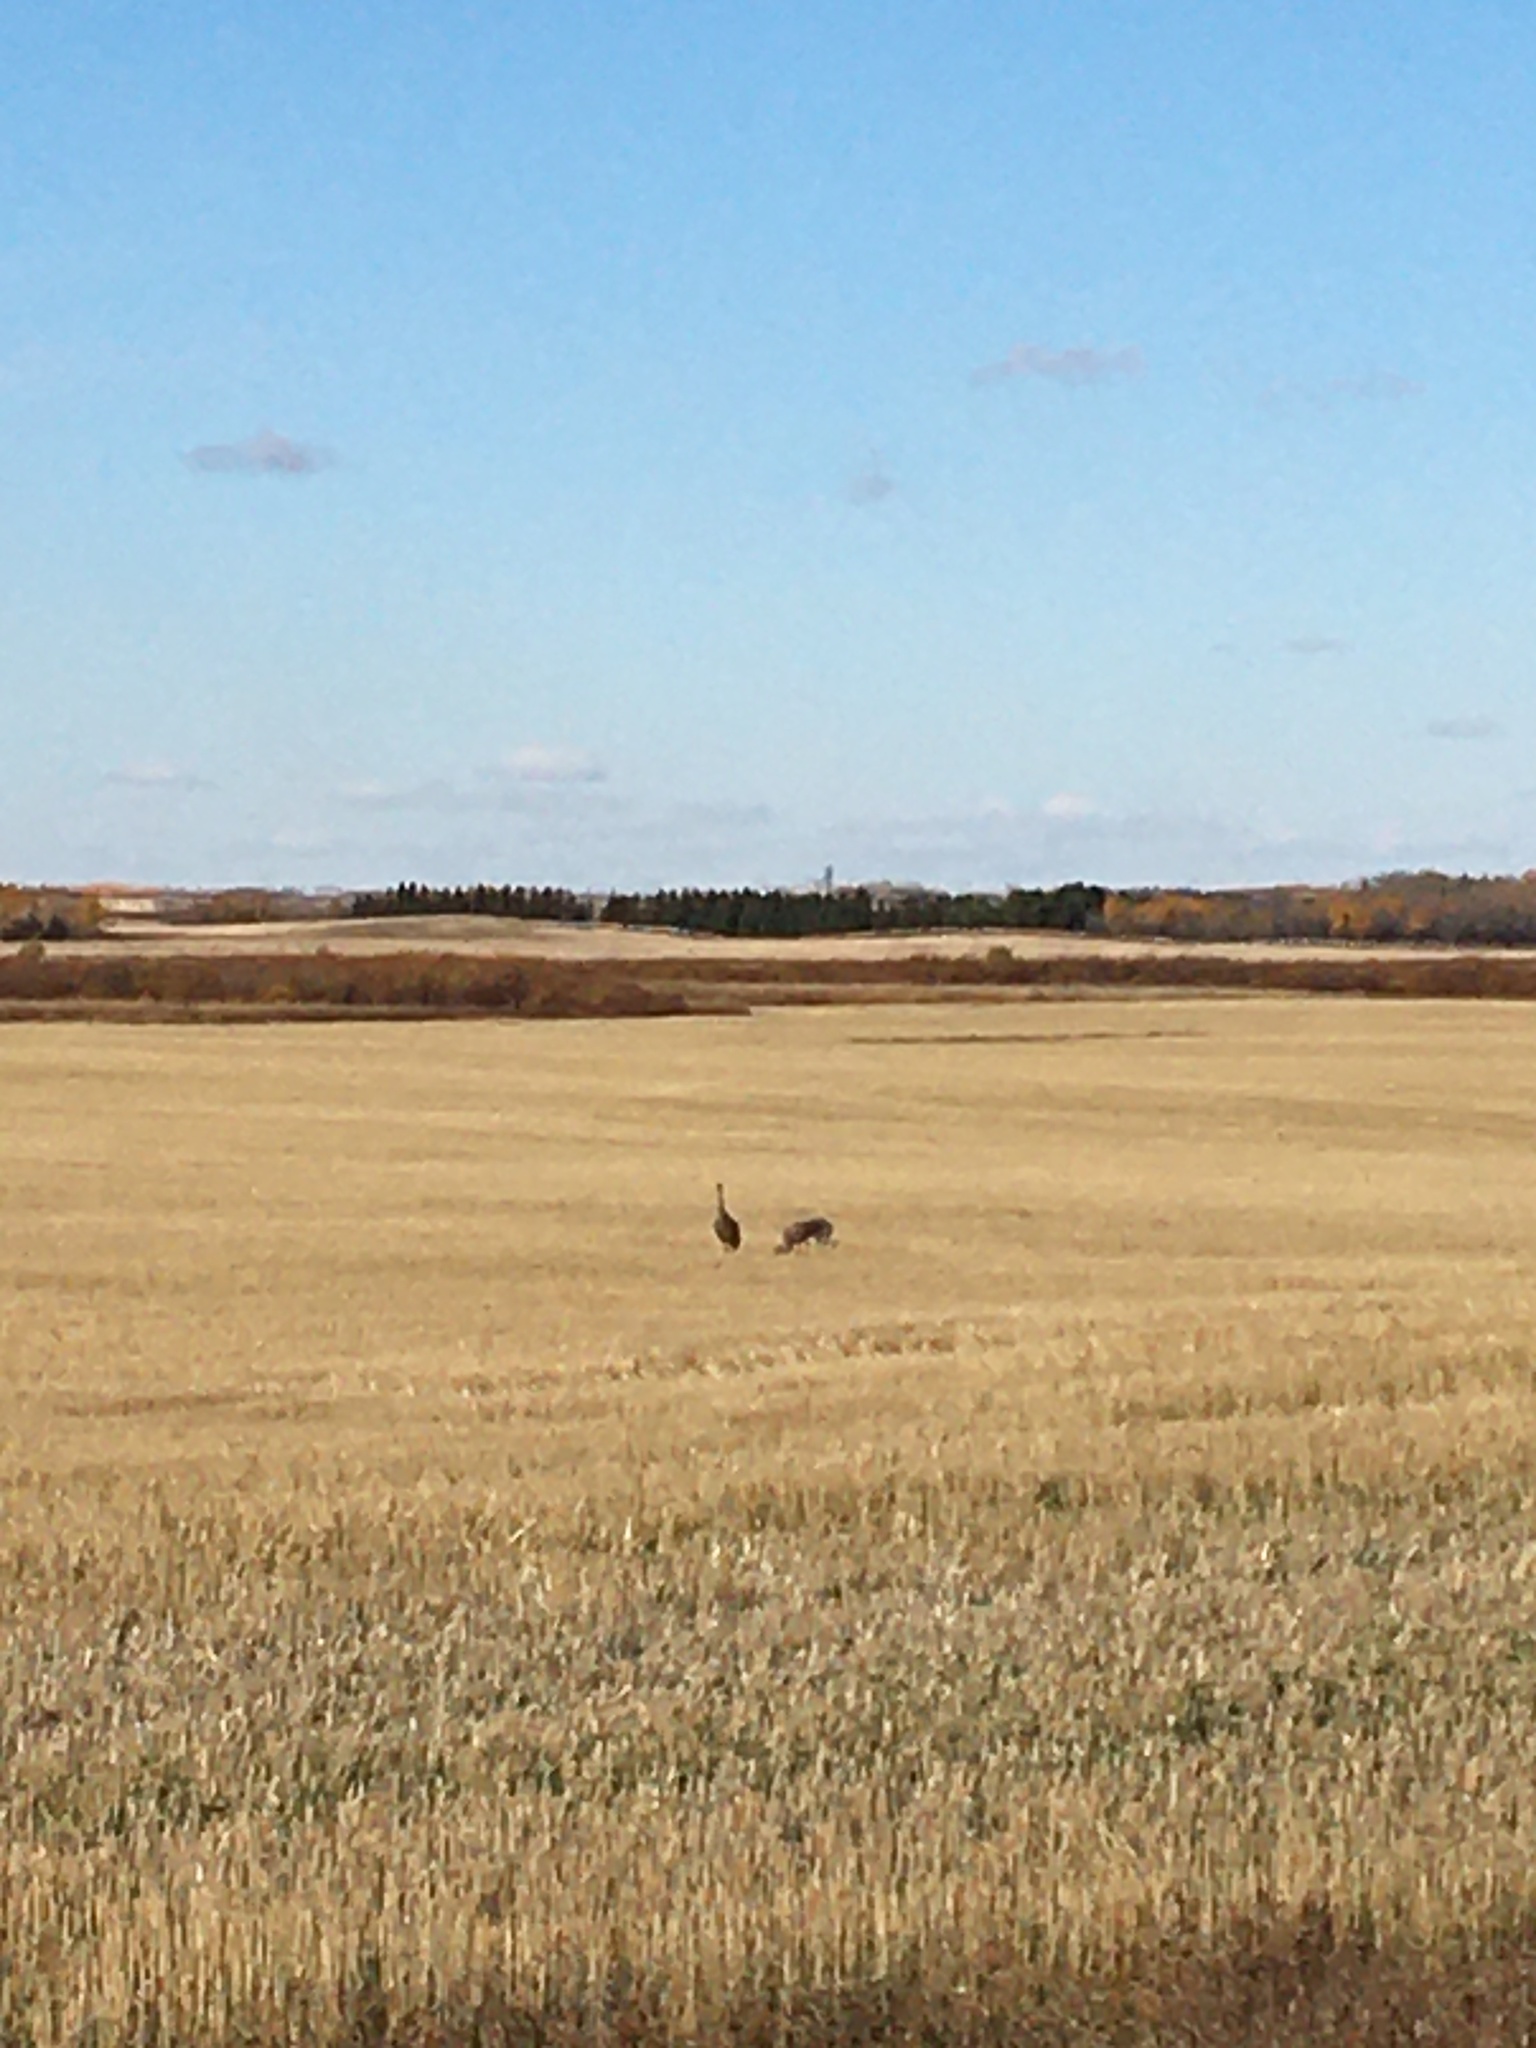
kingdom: Animalia
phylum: Chordata
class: Aves
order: Gruiformes
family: Gruidae
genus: Grus
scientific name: Grus canadensis
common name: Sandhill crane
